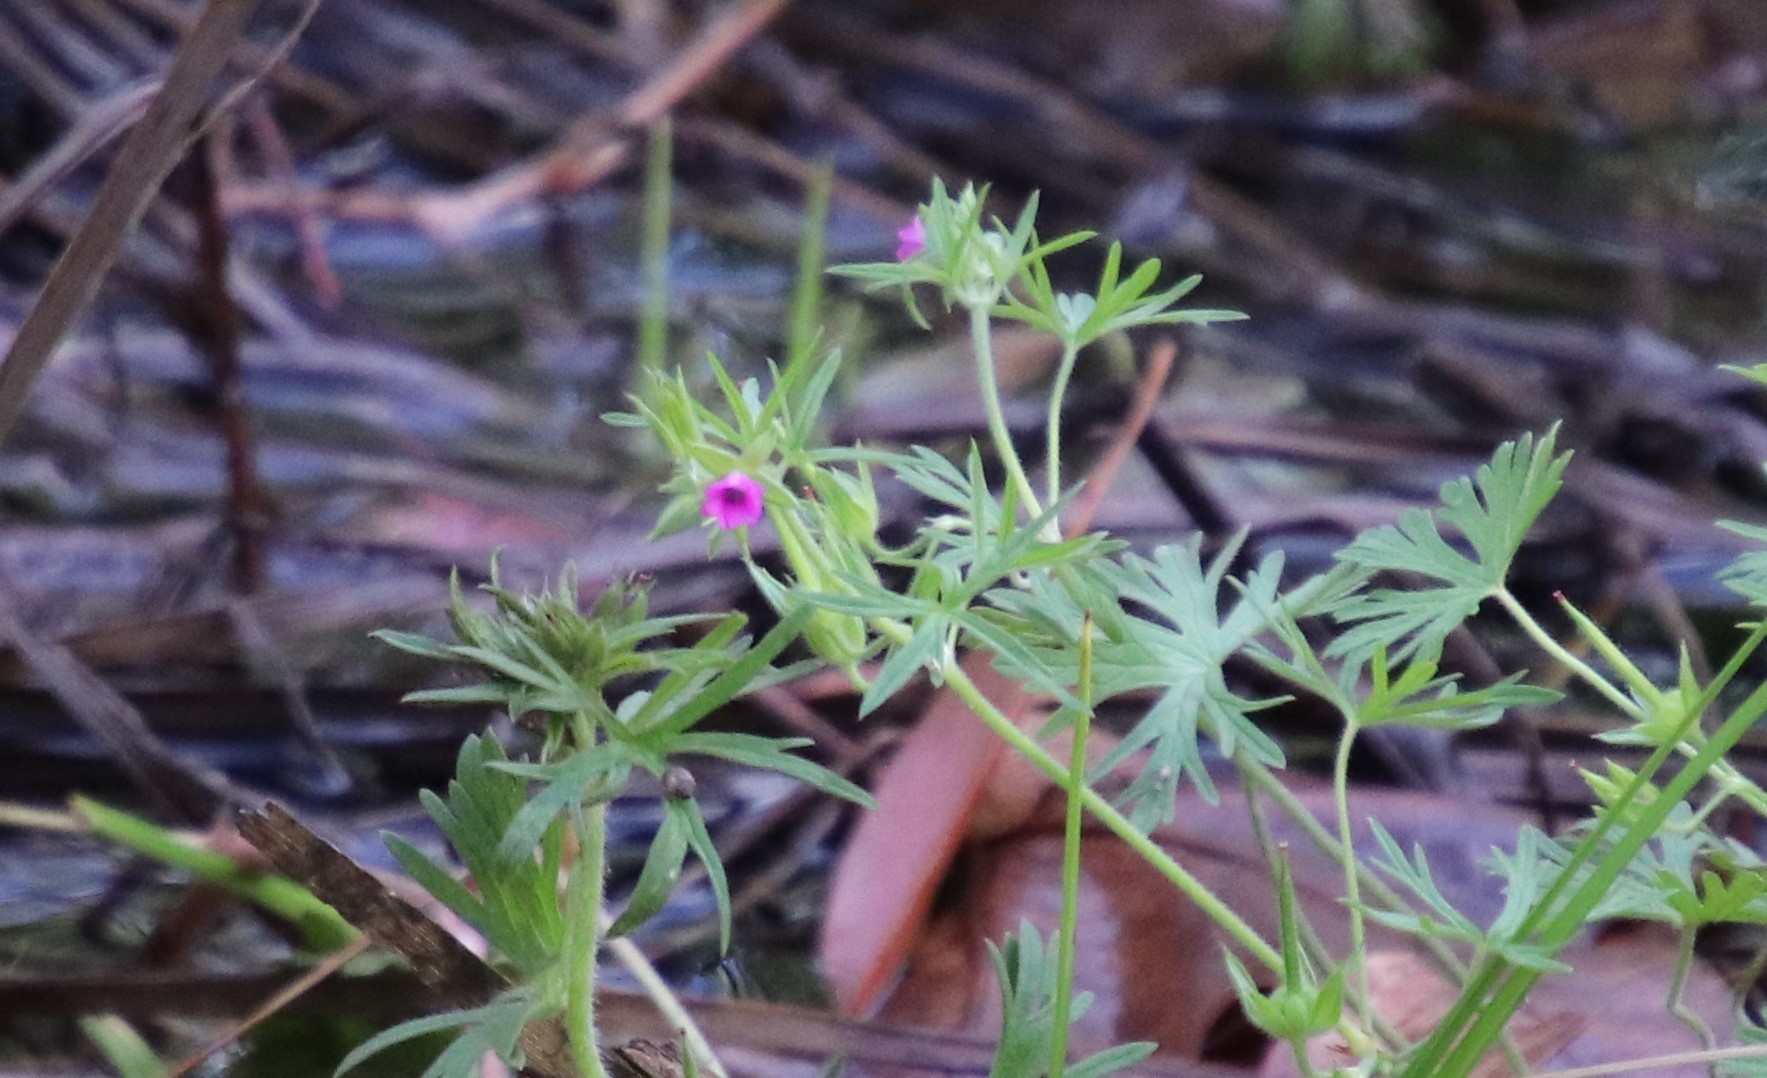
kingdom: Plantae
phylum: Tracheophyta
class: Magnoliopsida
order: Geraniales
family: Geraniaceae
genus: Geranium
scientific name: Geranium dissectum
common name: Cut-leaved crane's-bill
